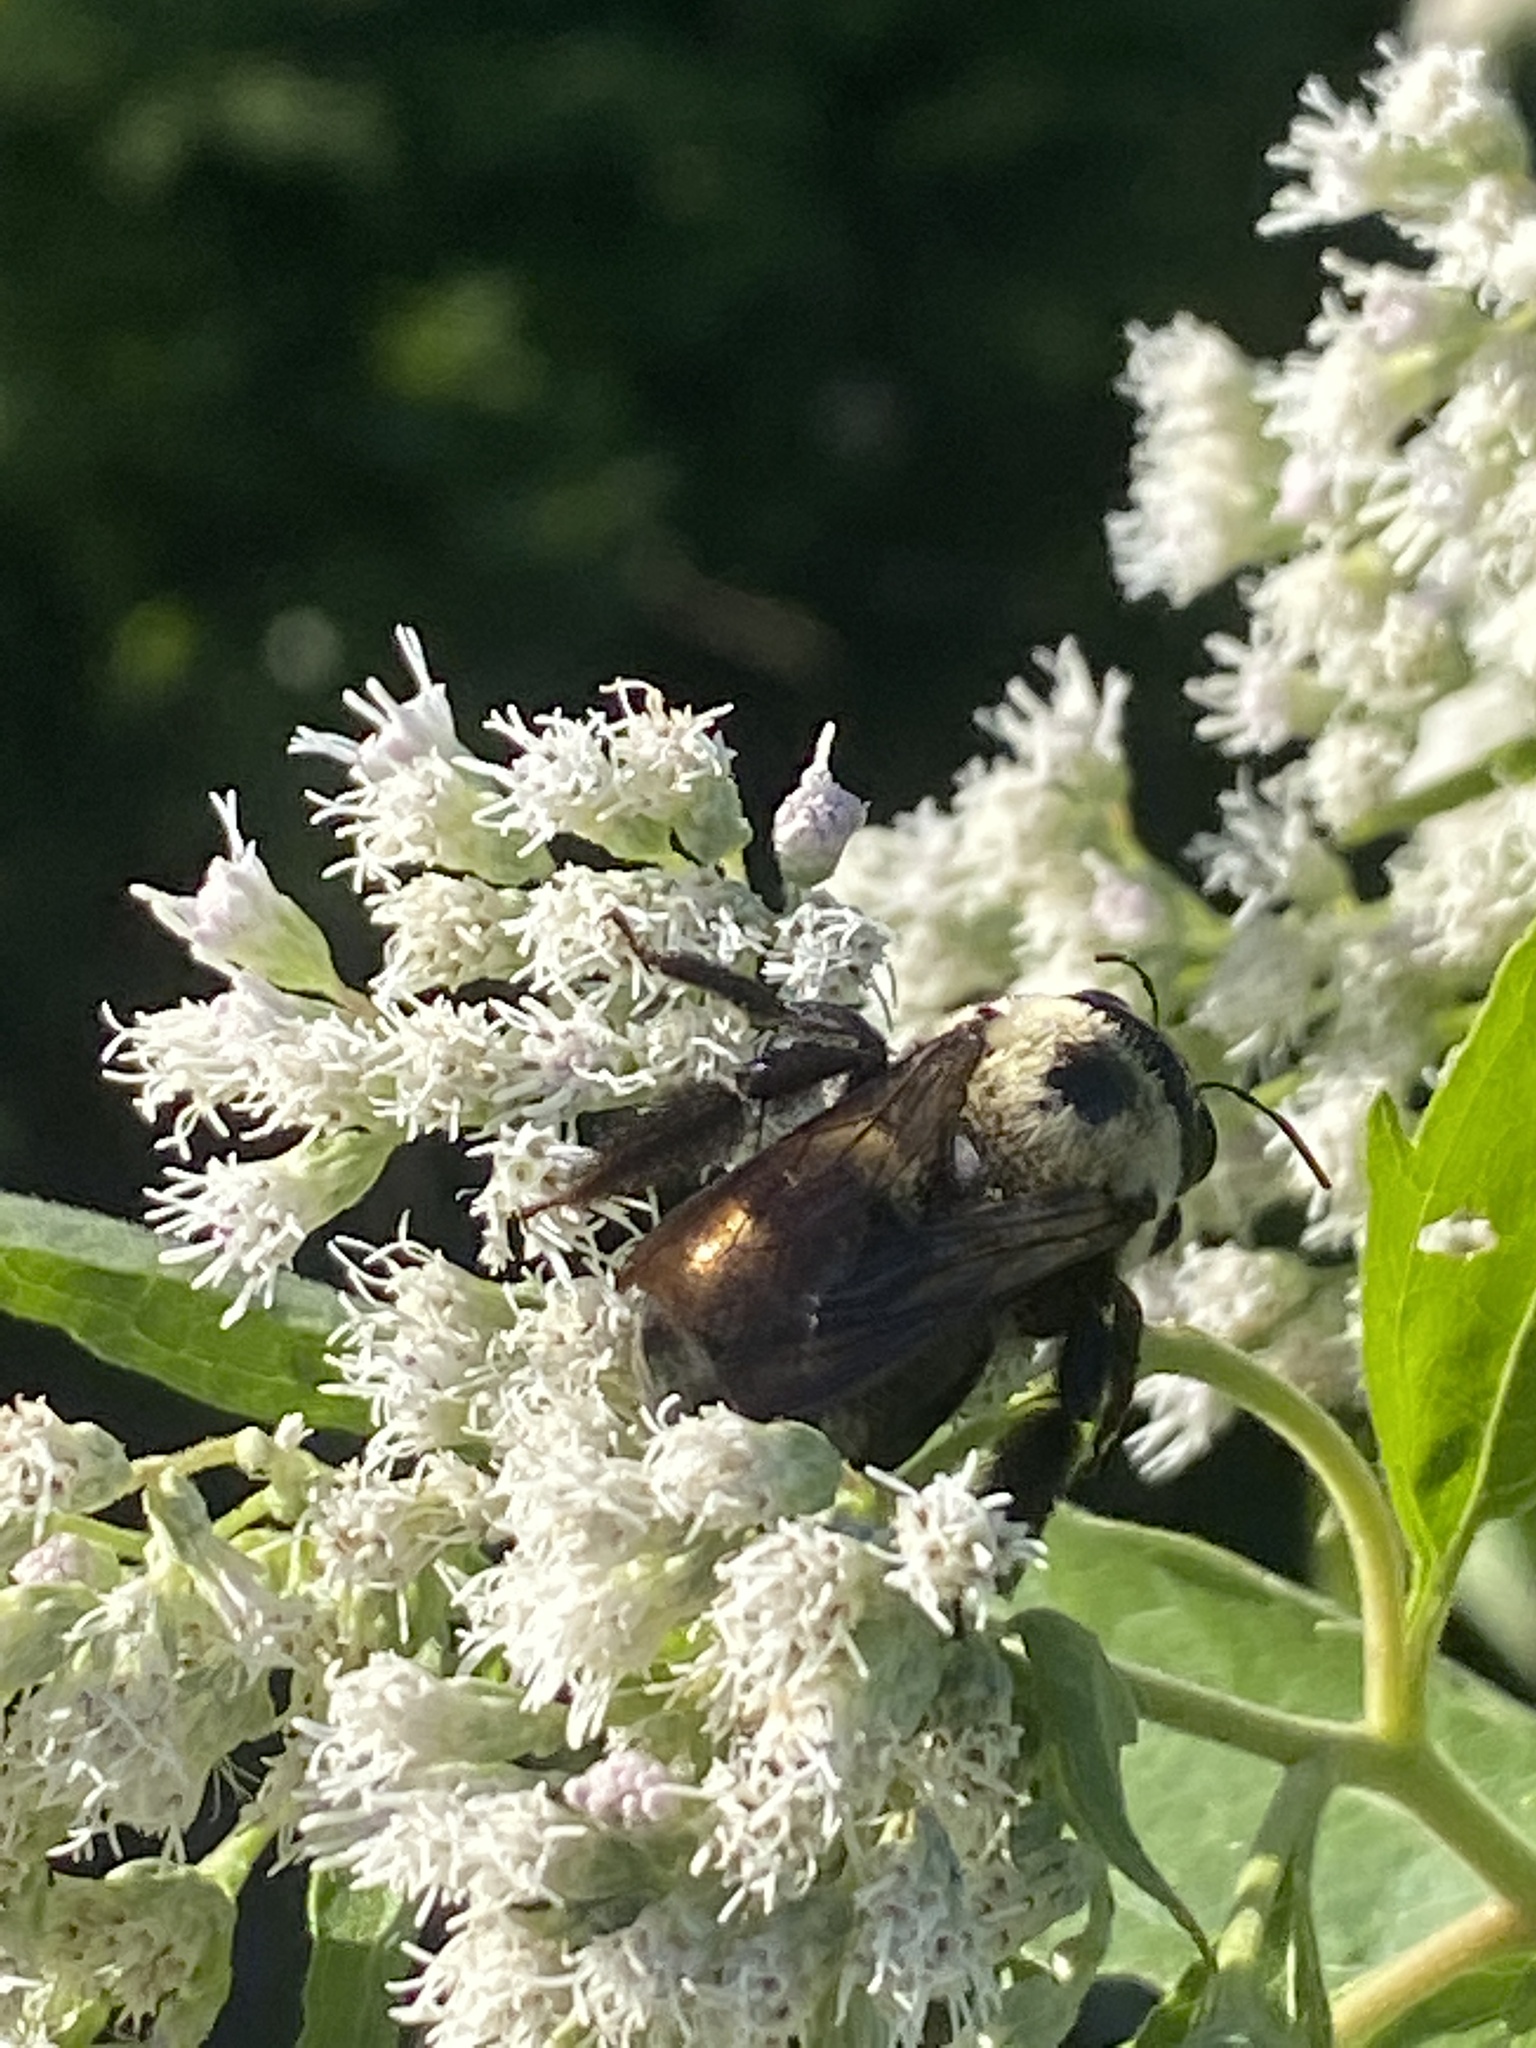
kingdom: Animalia
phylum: Arthropoda
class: Insecta
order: Hymenoptera
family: Apidae
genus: Xylocopa
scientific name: Xylocopa virginica
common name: Carpenter bee
